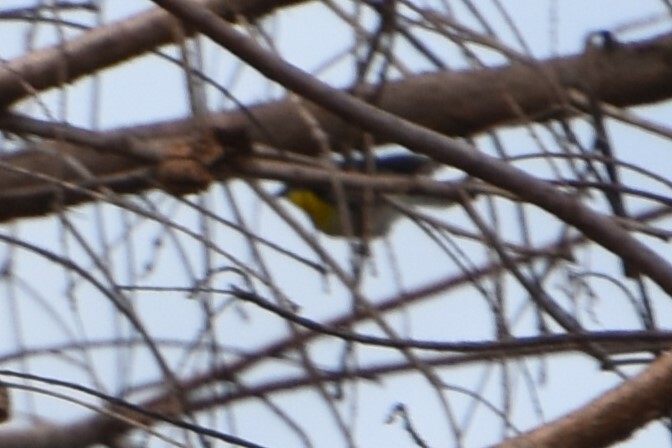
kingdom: Animalia
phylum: Chordata
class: Aves
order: Passeriformes
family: Parulidae
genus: Setophaga
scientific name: Setophaga americana
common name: Northern parula
